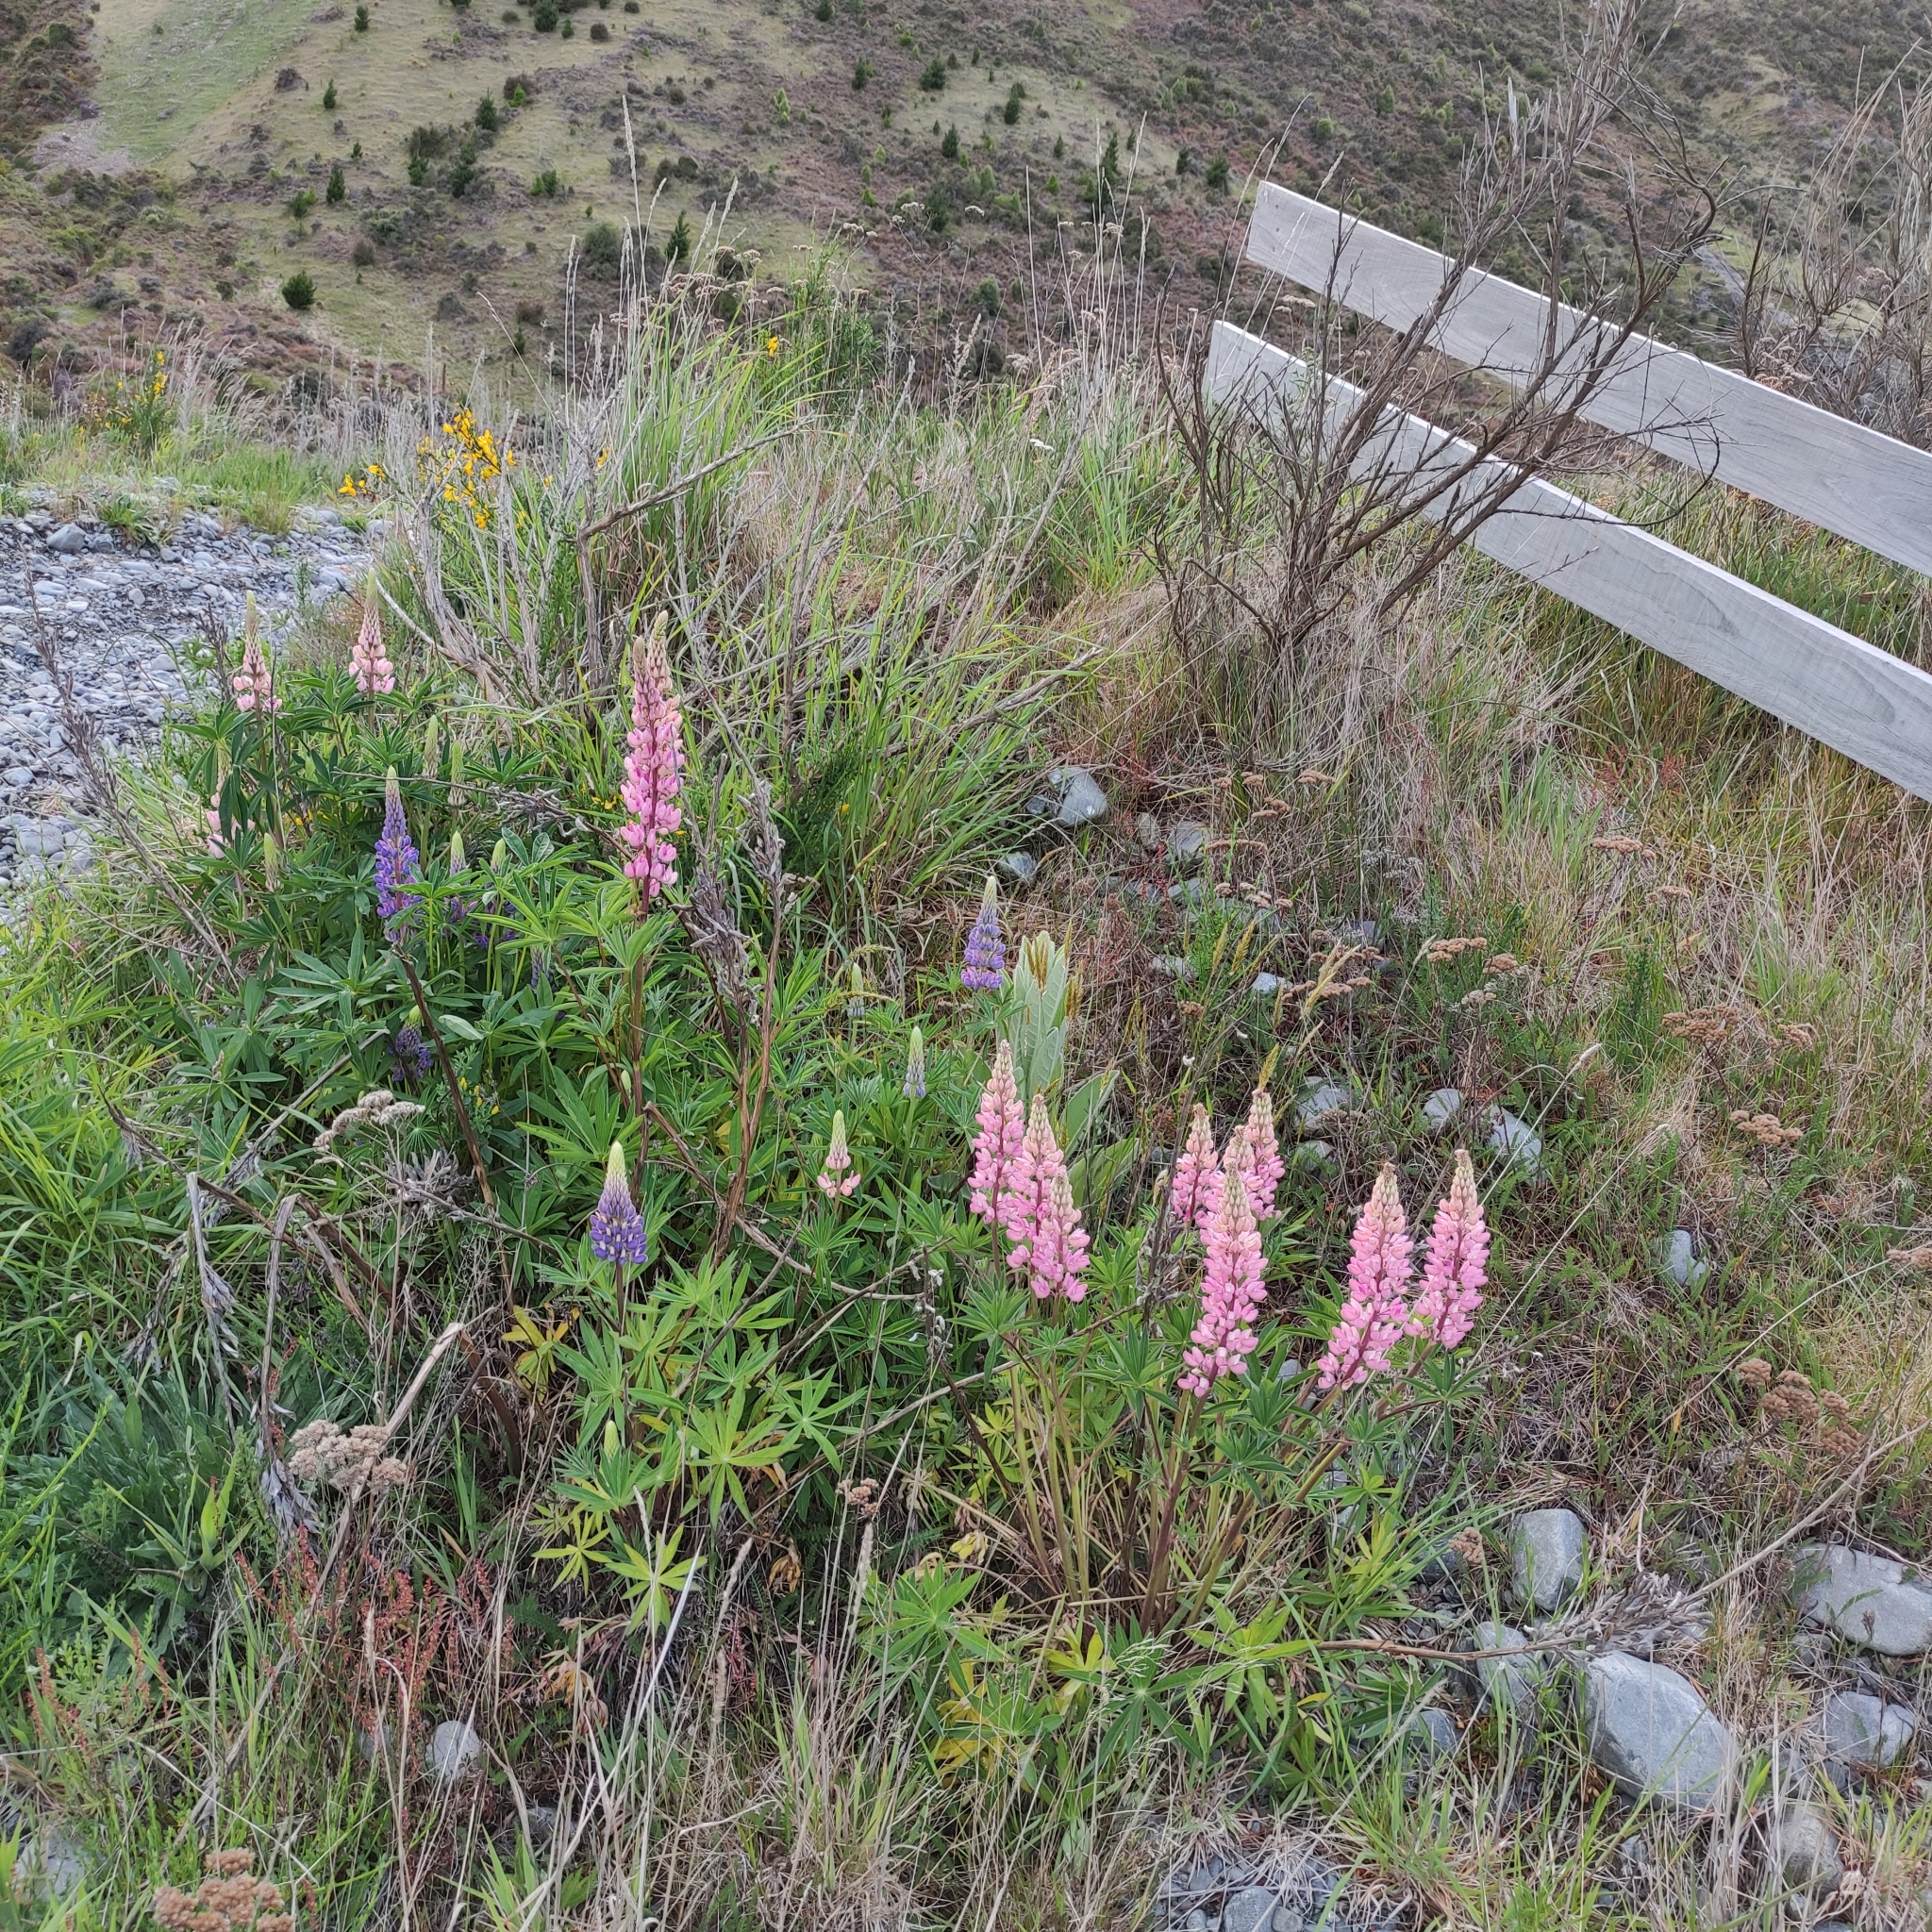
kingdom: Plantae
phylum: Tracheophyta
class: Magnoliopsida
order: Fabales
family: Fabaceae
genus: Lupinus
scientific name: Lupinus polyphyllus
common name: Garden lupin
